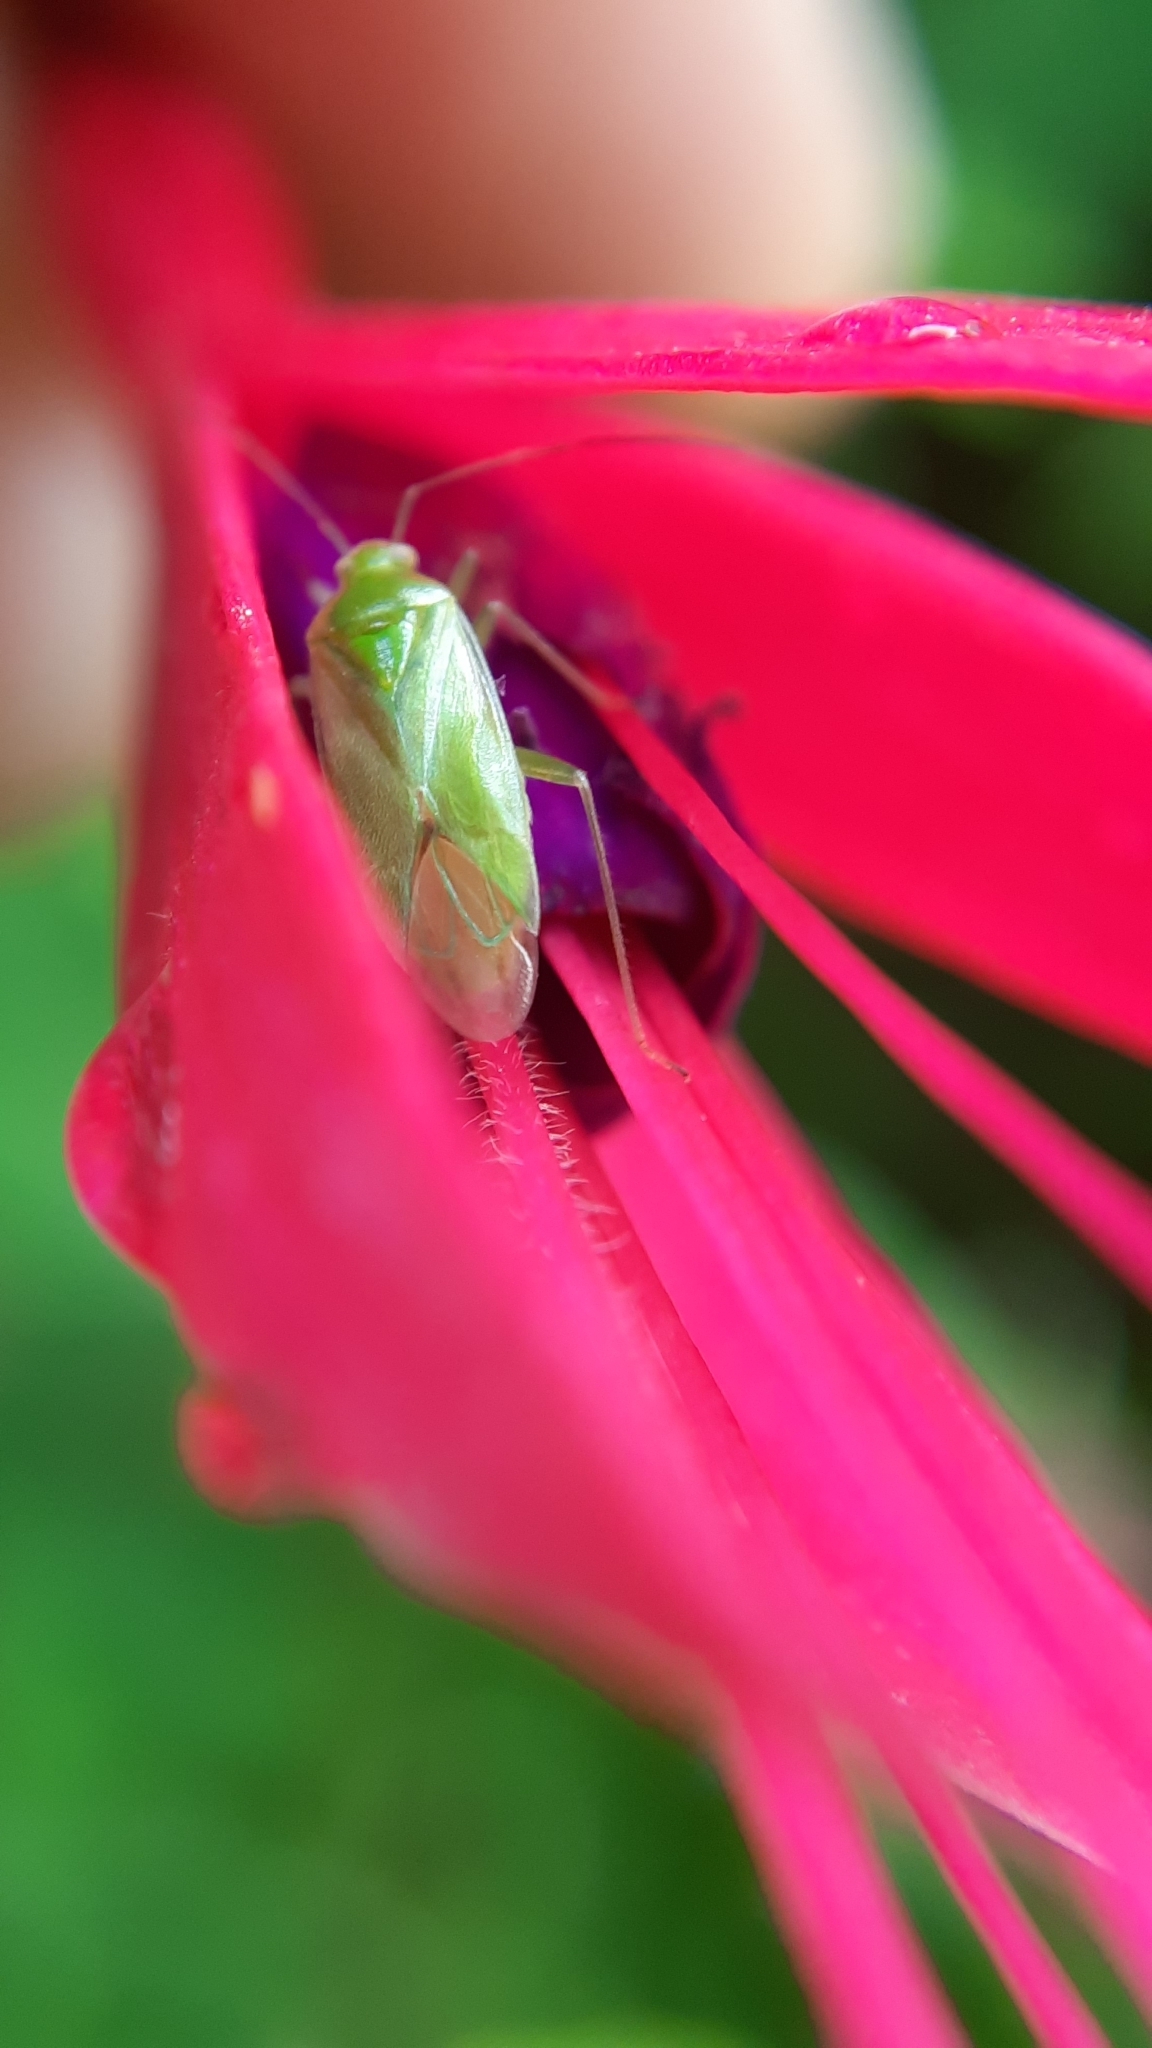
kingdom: Animalia
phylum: Arthropoda
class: Insecta
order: Hemiptera
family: Miridae
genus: Lygocoris
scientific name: Lygocoris pabulinus
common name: Common green capsid
